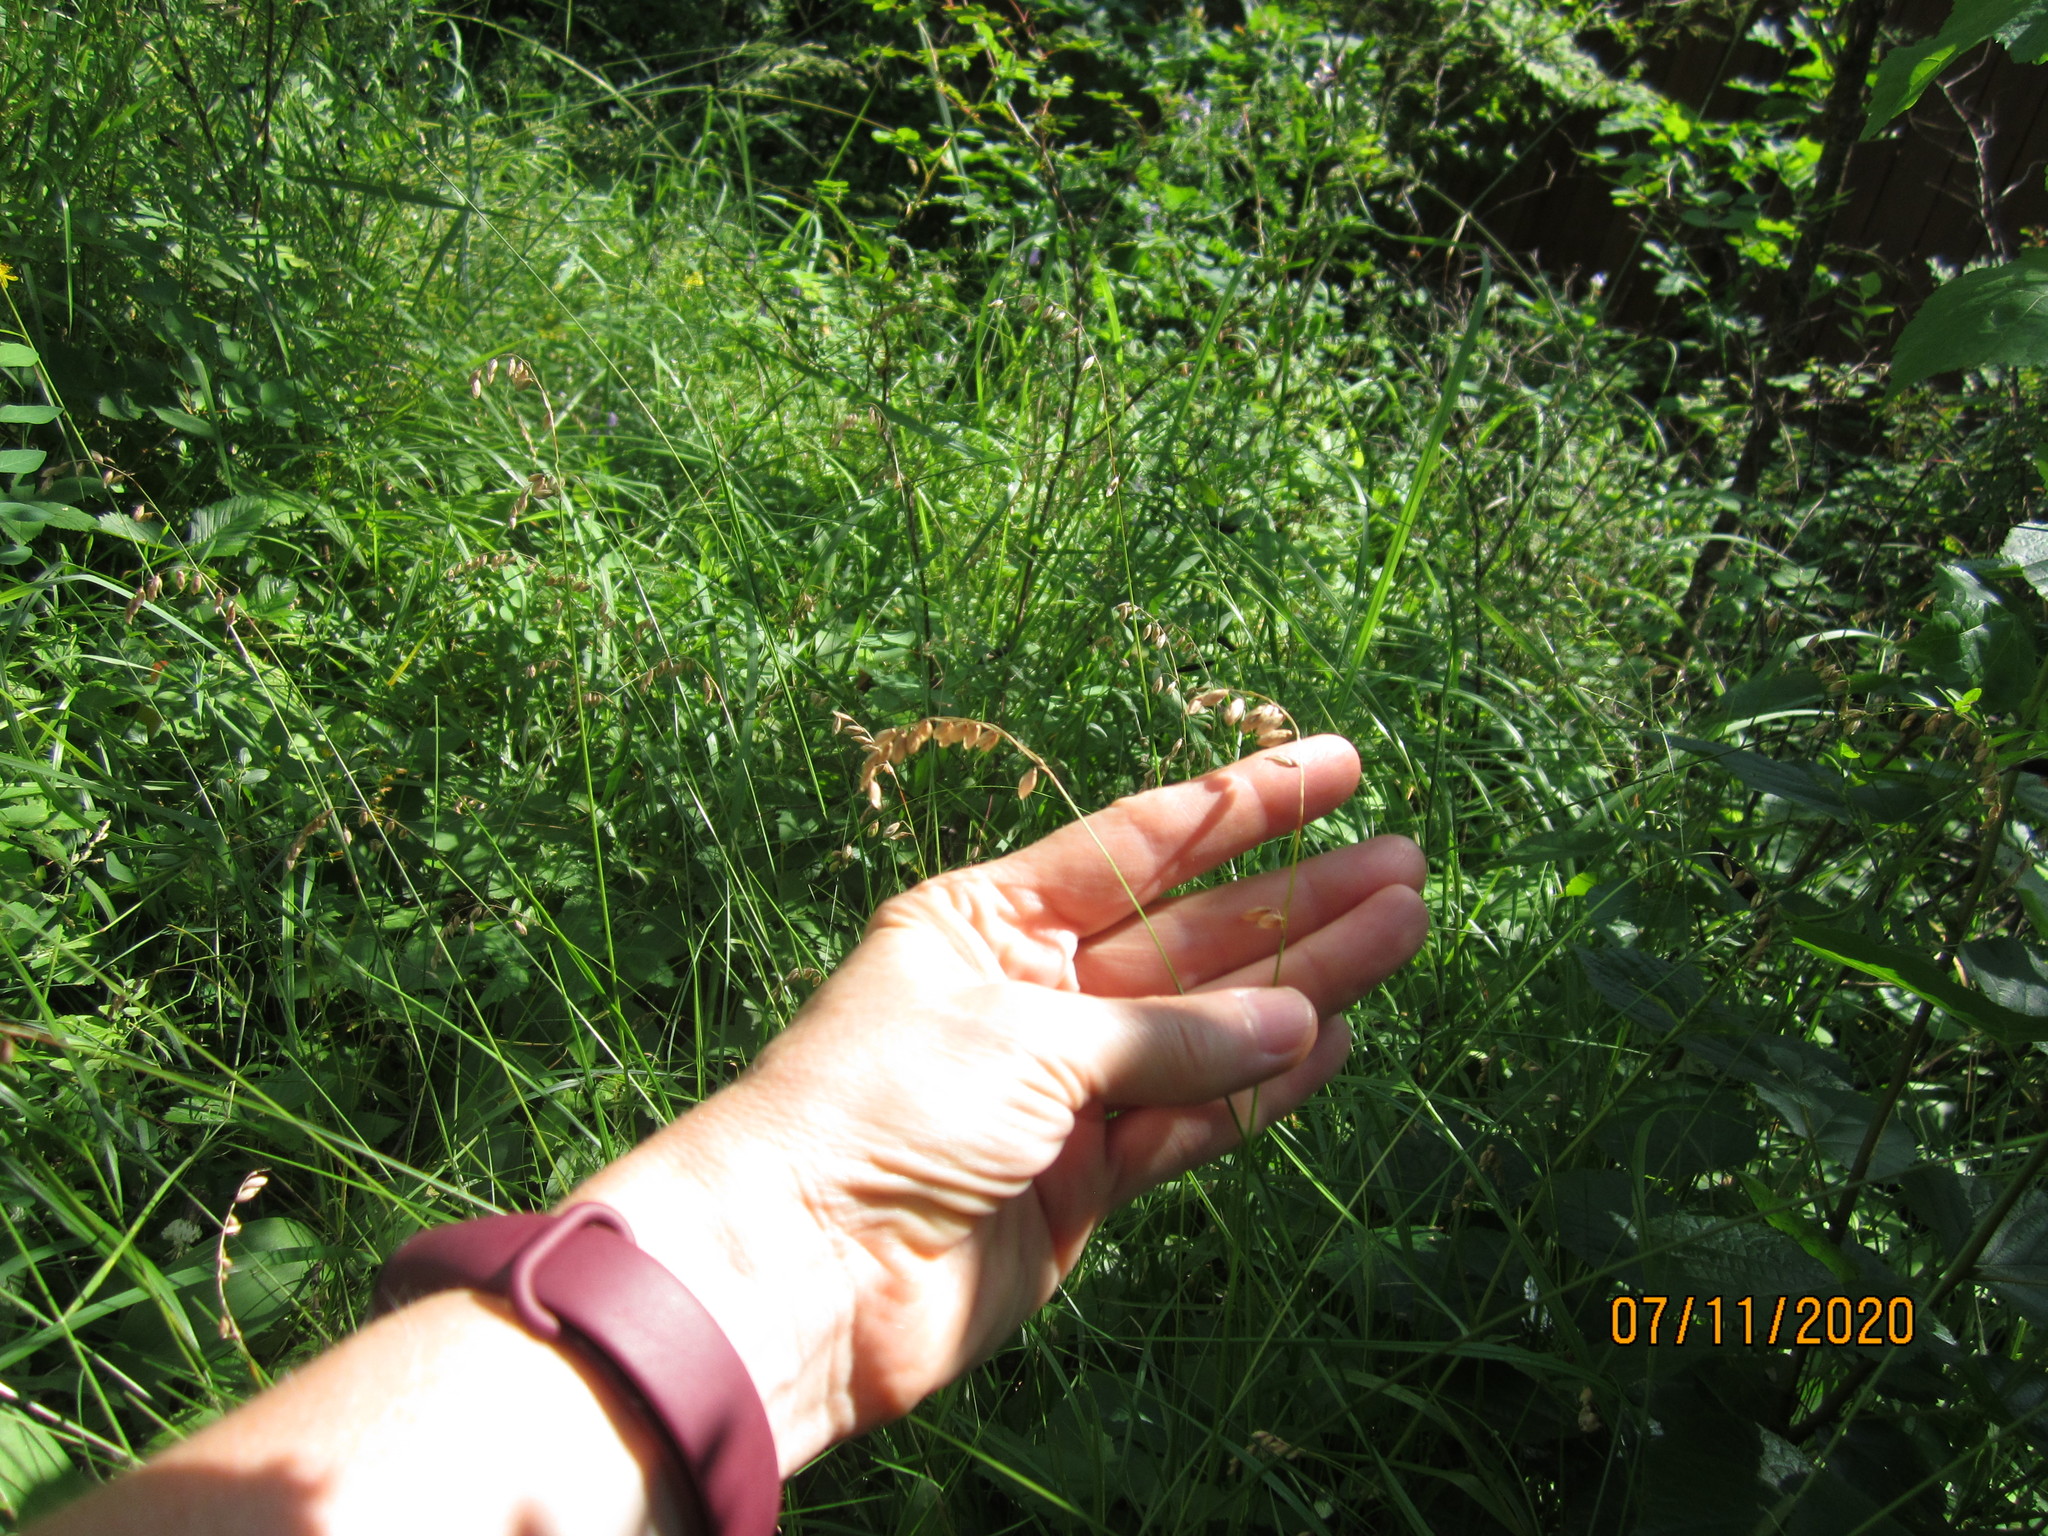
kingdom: Plantae
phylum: Tracheophyta
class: Liliopsida
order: Poales
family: Poaceae
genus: Melica
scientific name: Melica nutans
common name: Mountain melick
